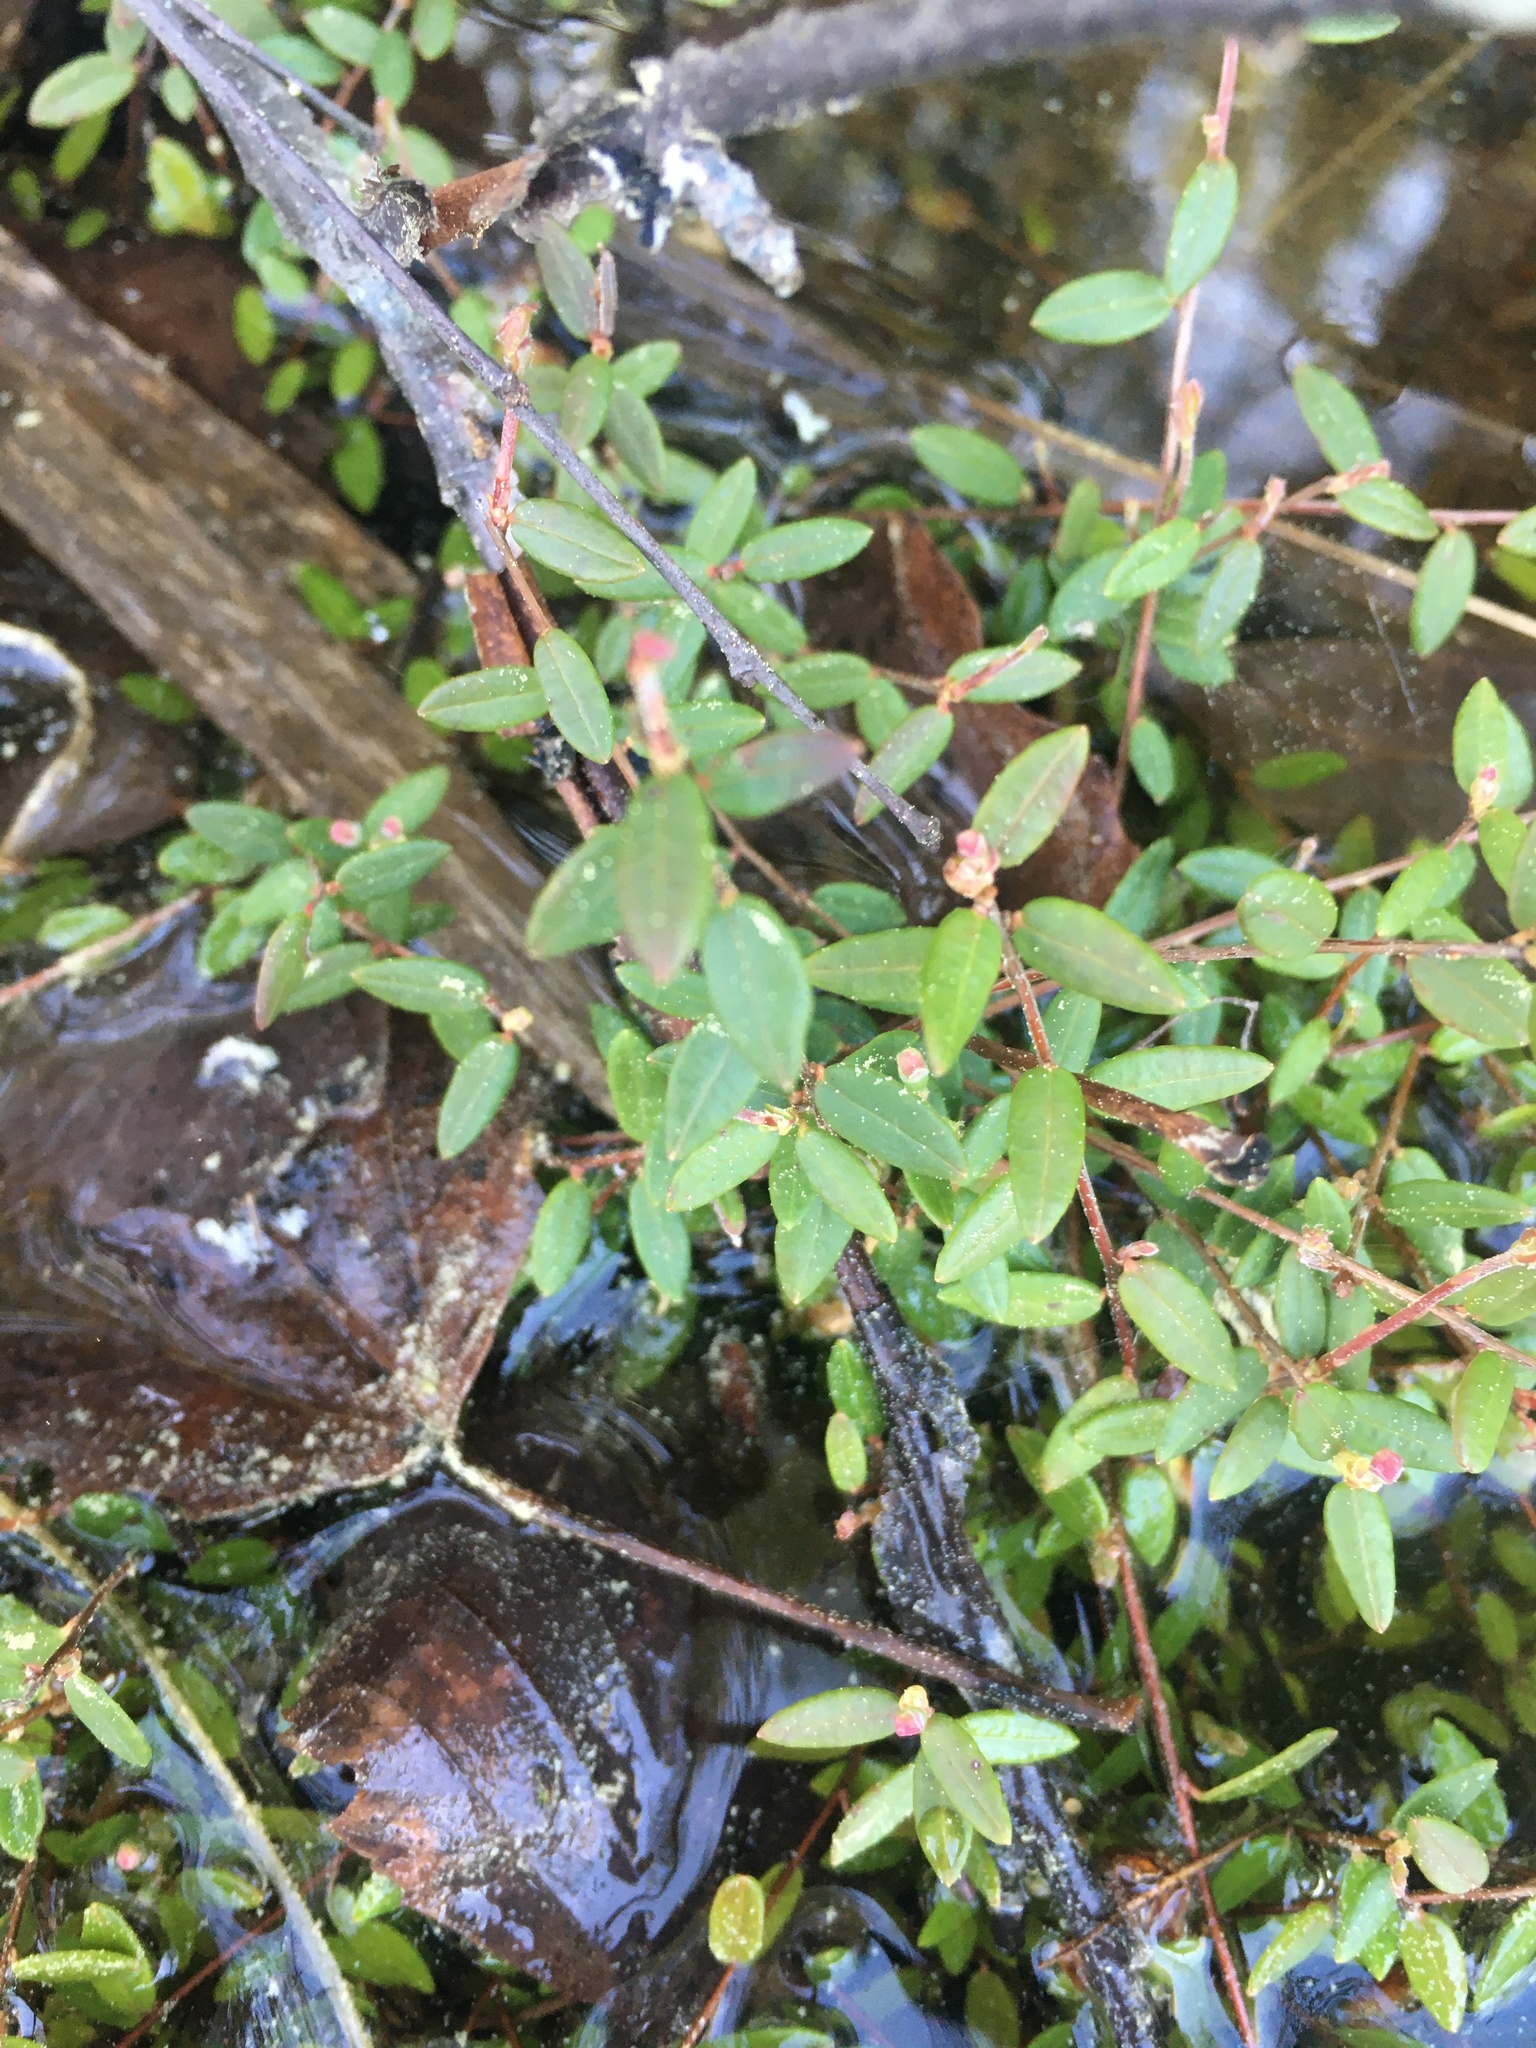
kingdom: Plantae
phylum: Tracheophyta
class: Magnoliopsida
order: Ericales
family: Ericaceae
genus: Vaccinium
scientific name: Vaccinium oxycoccos
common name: Cranberry
